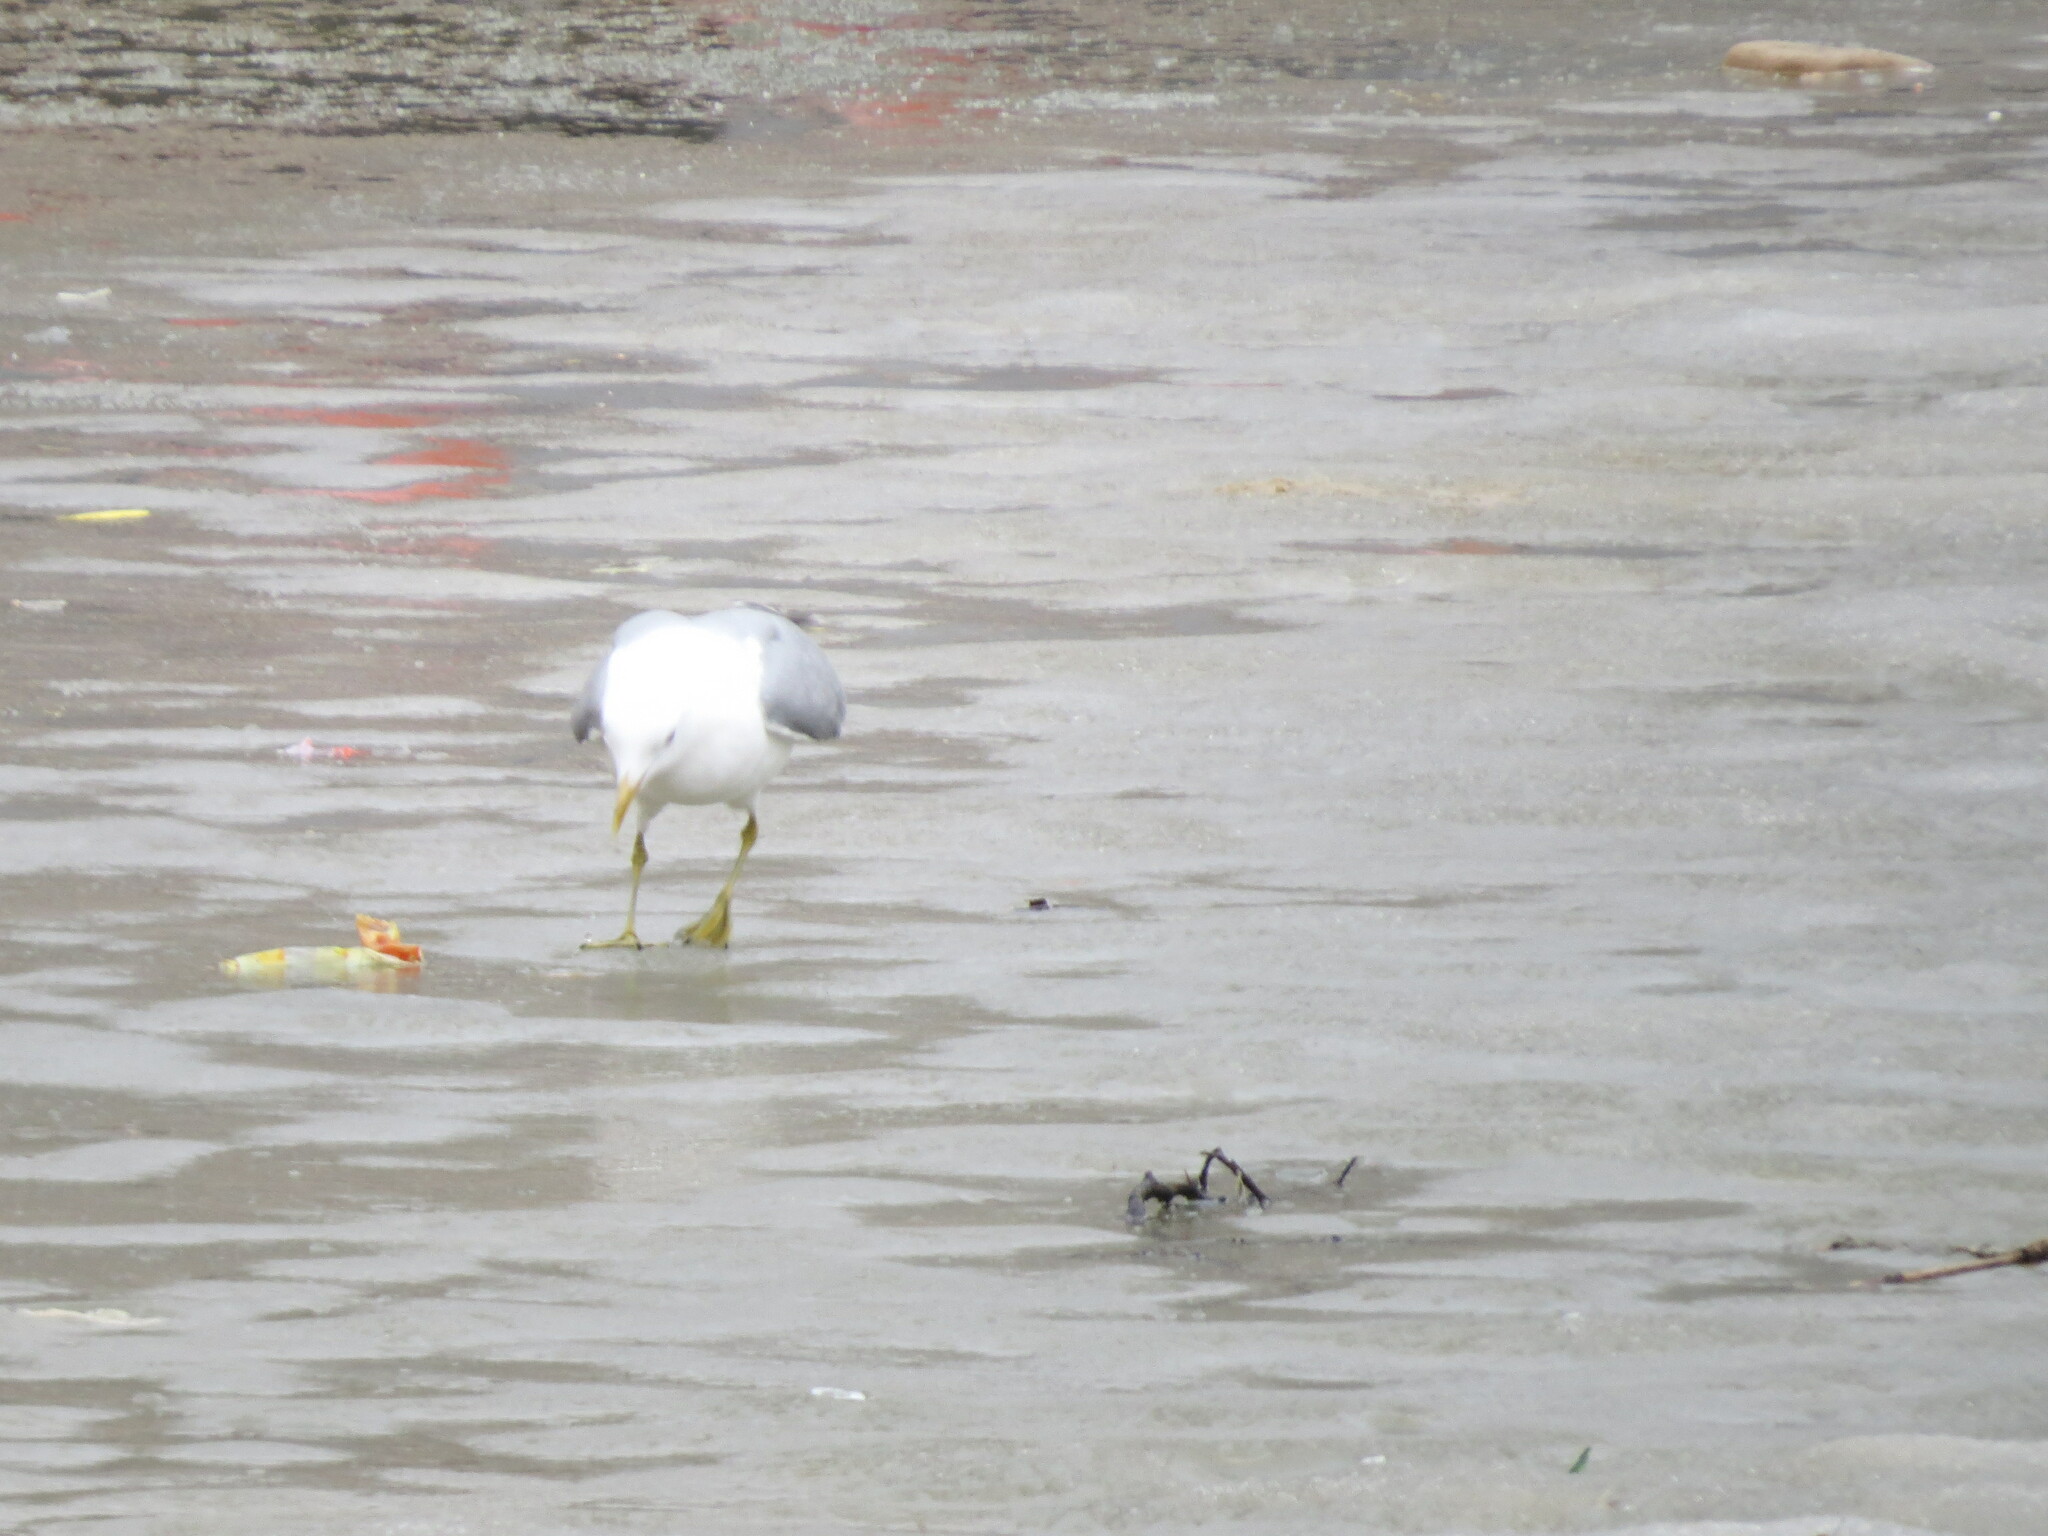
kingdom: Animalia
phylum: Chordata
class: Aves
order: Charadriiformes
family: Laridae
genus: Larus
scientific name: Larus canus
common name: Mew gull
